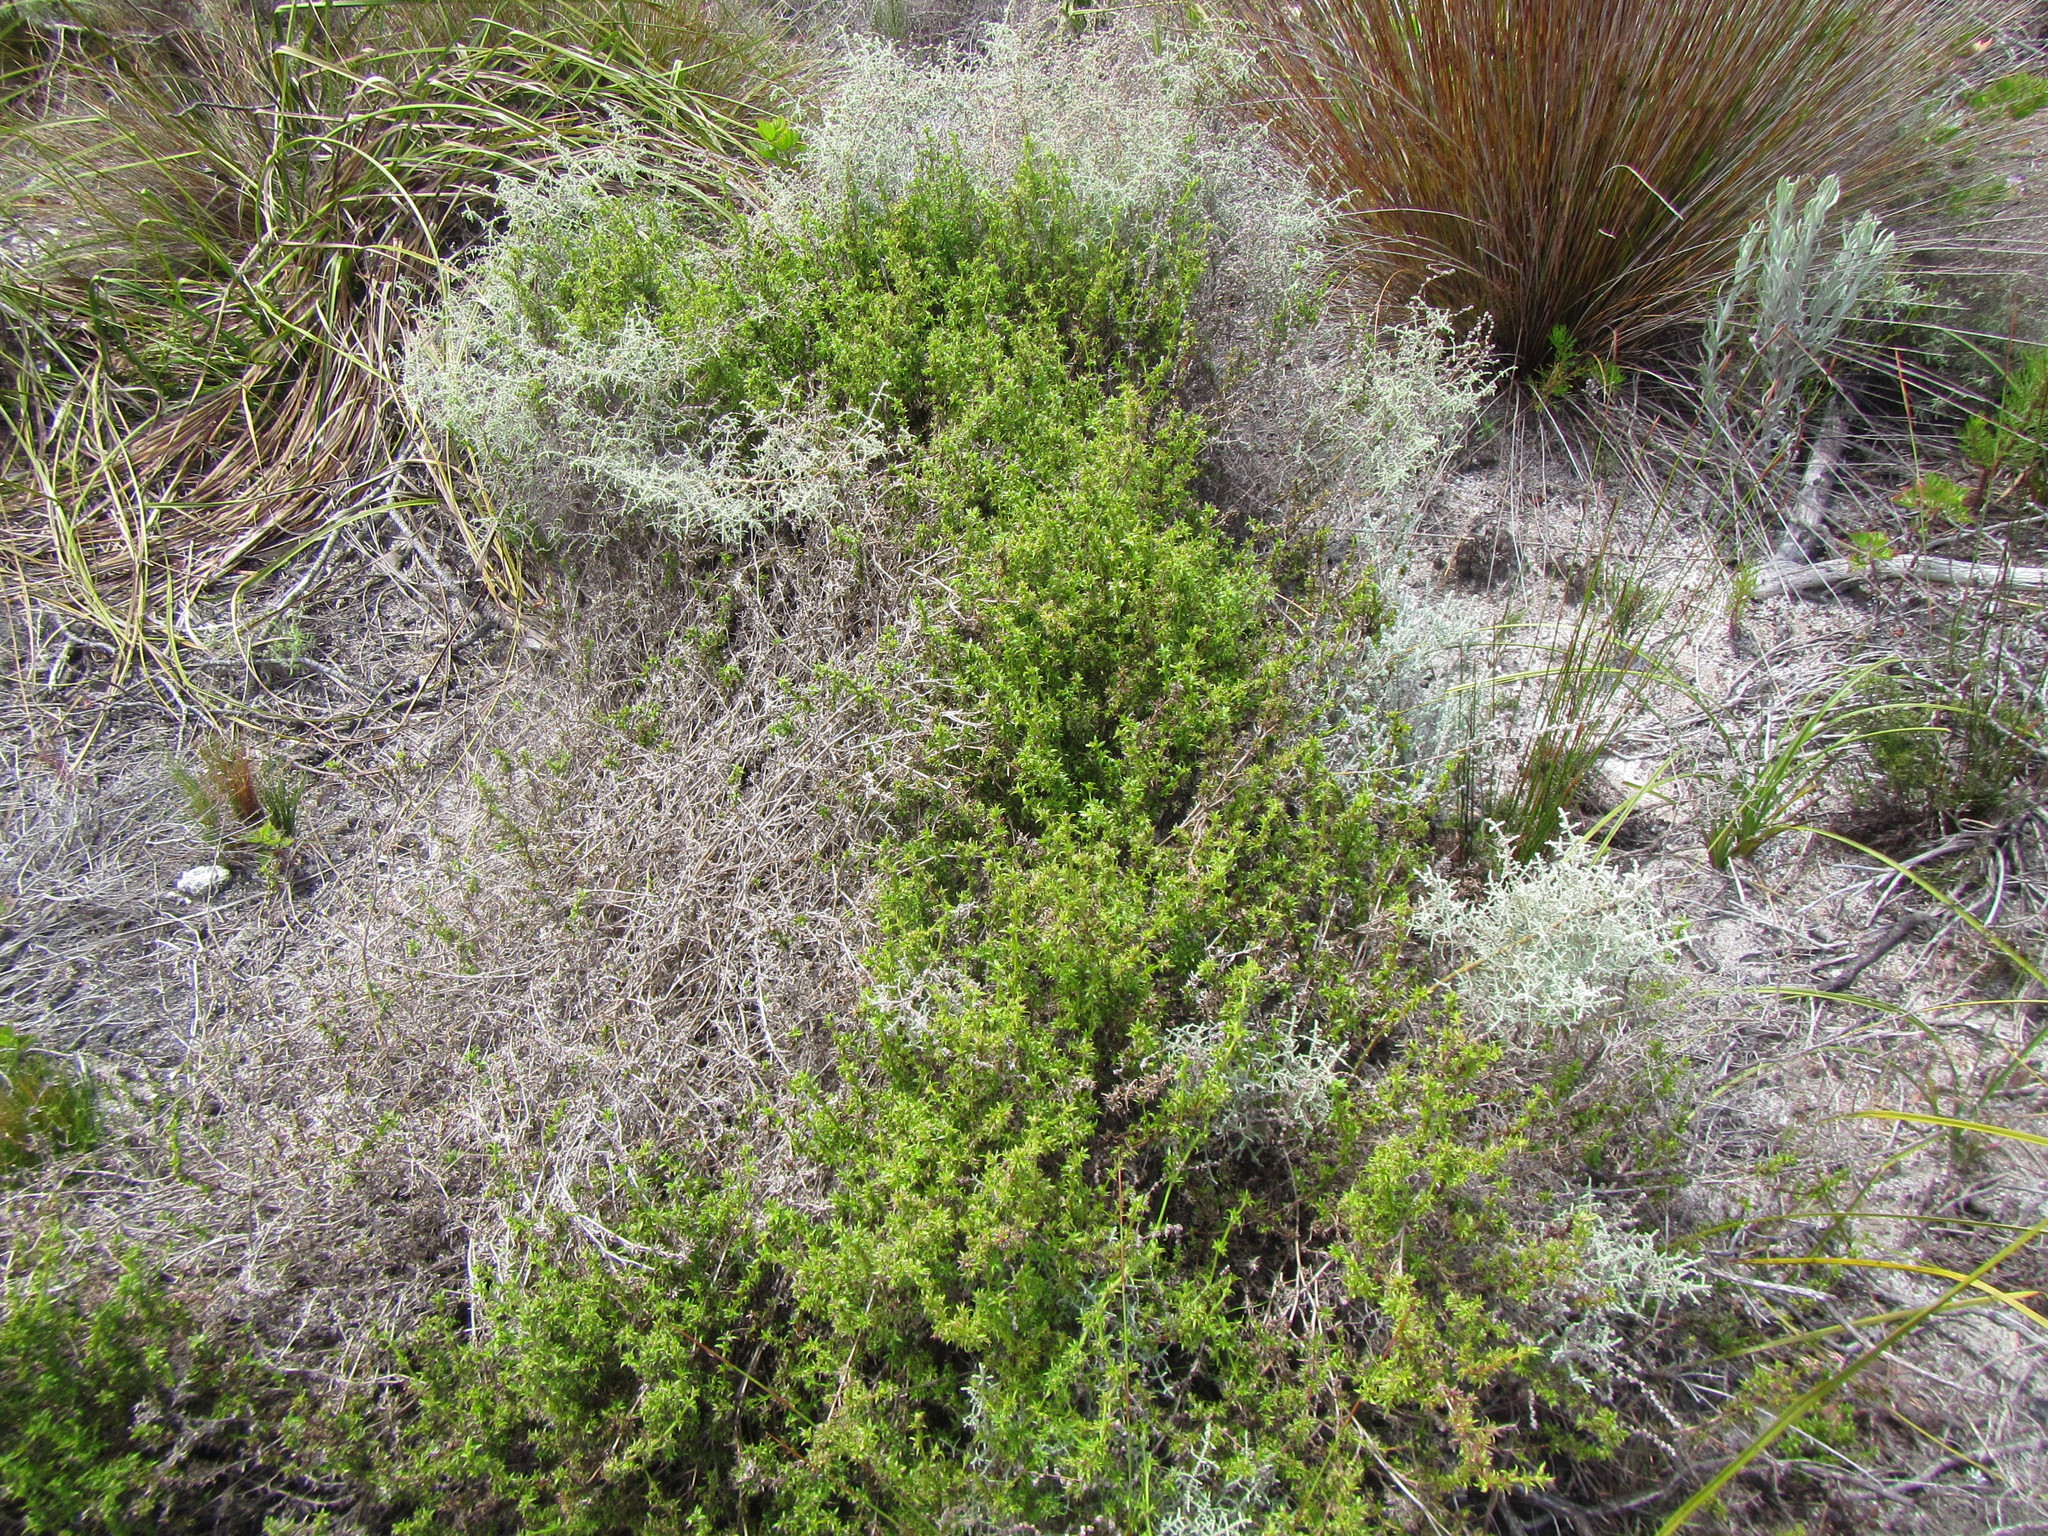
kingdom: Plantae
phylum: Tracheophyta
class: Magnoliopsida
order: Gentianales
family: Rubiaceae
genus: Carpacoce
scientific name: Carpacoce spermacocea
